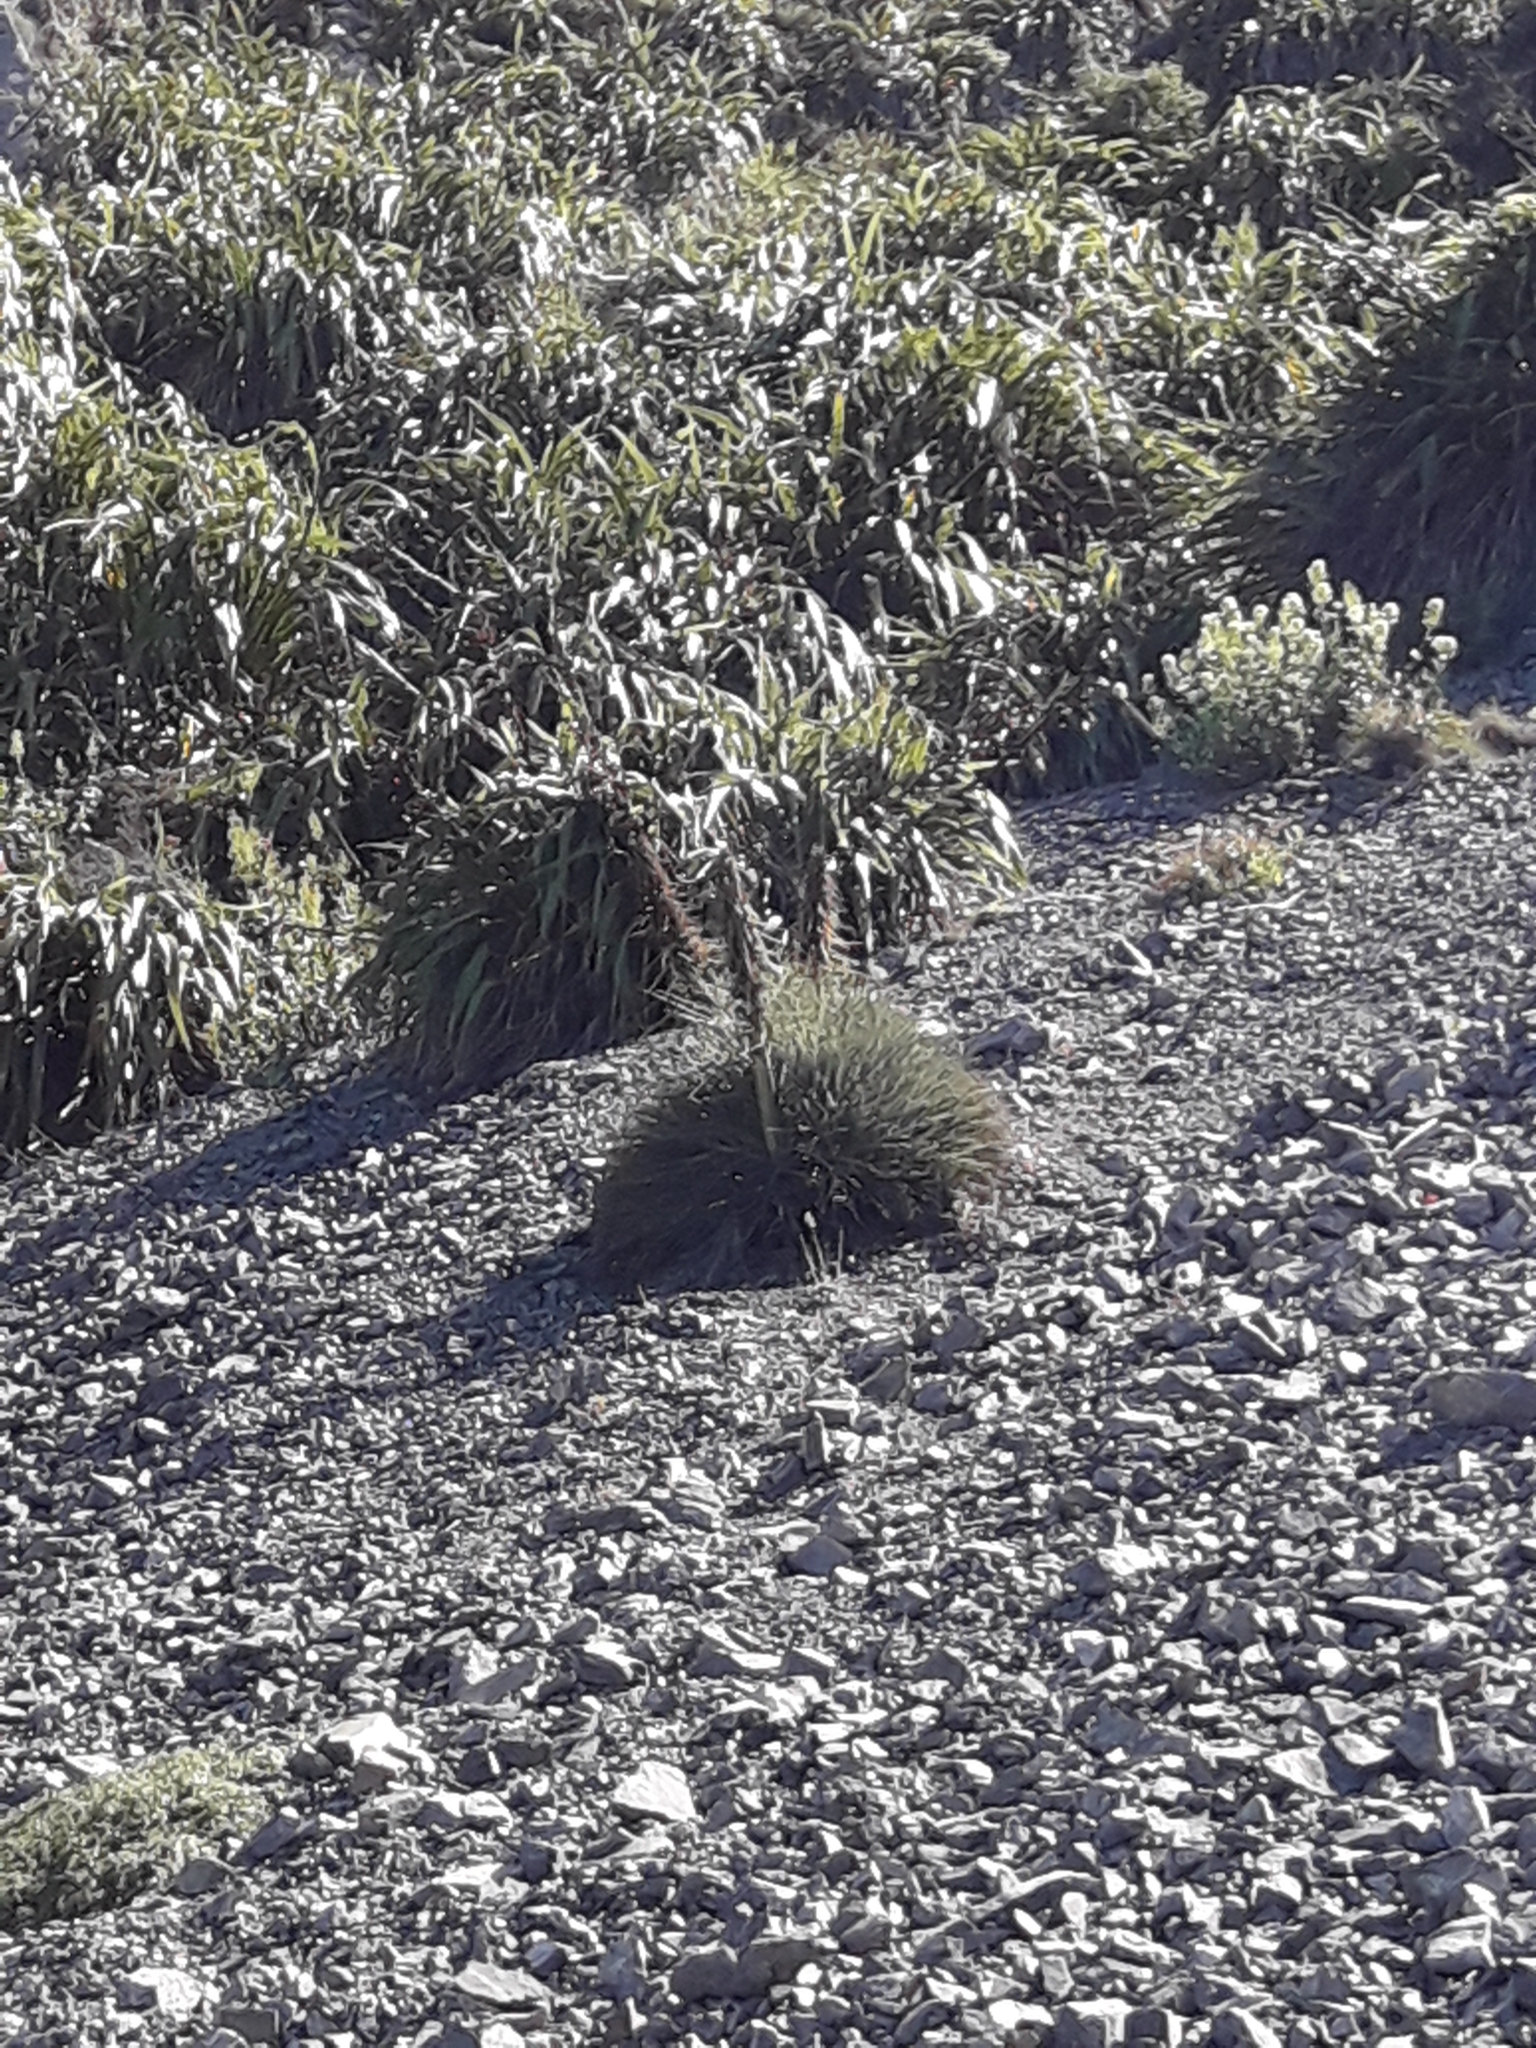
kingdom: Plantae
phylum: Tracheophyta
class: Magnoliopsida
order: Apiales
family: Apiaceae
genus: Aciphylla
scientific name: Aciphylla squarrosa
